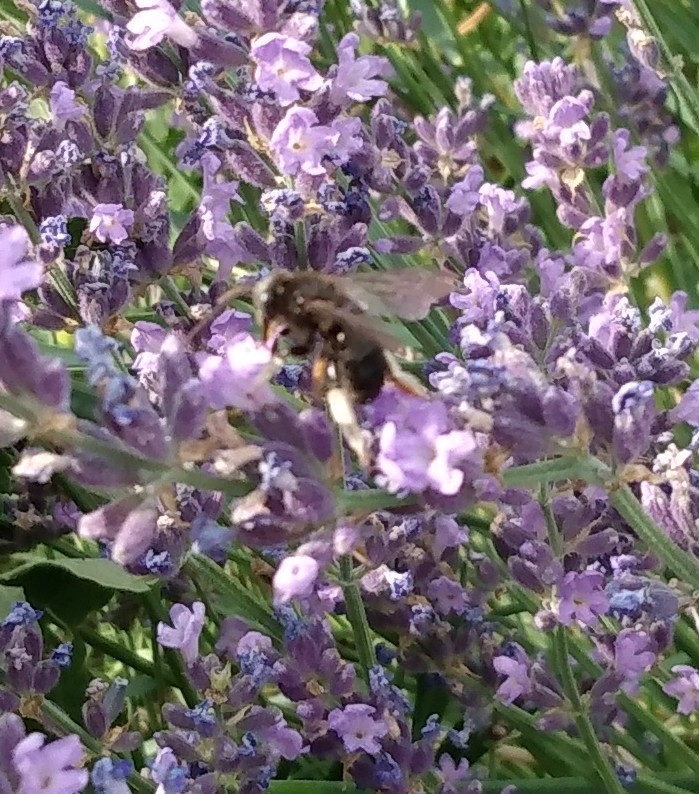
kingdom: Animalia
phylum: Arthropoda
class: Insecta
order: Hymenoptera
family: Apidae
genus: Melissodes
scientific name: Melissodes bimaculatus
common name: Two-spotted long-horned bee
